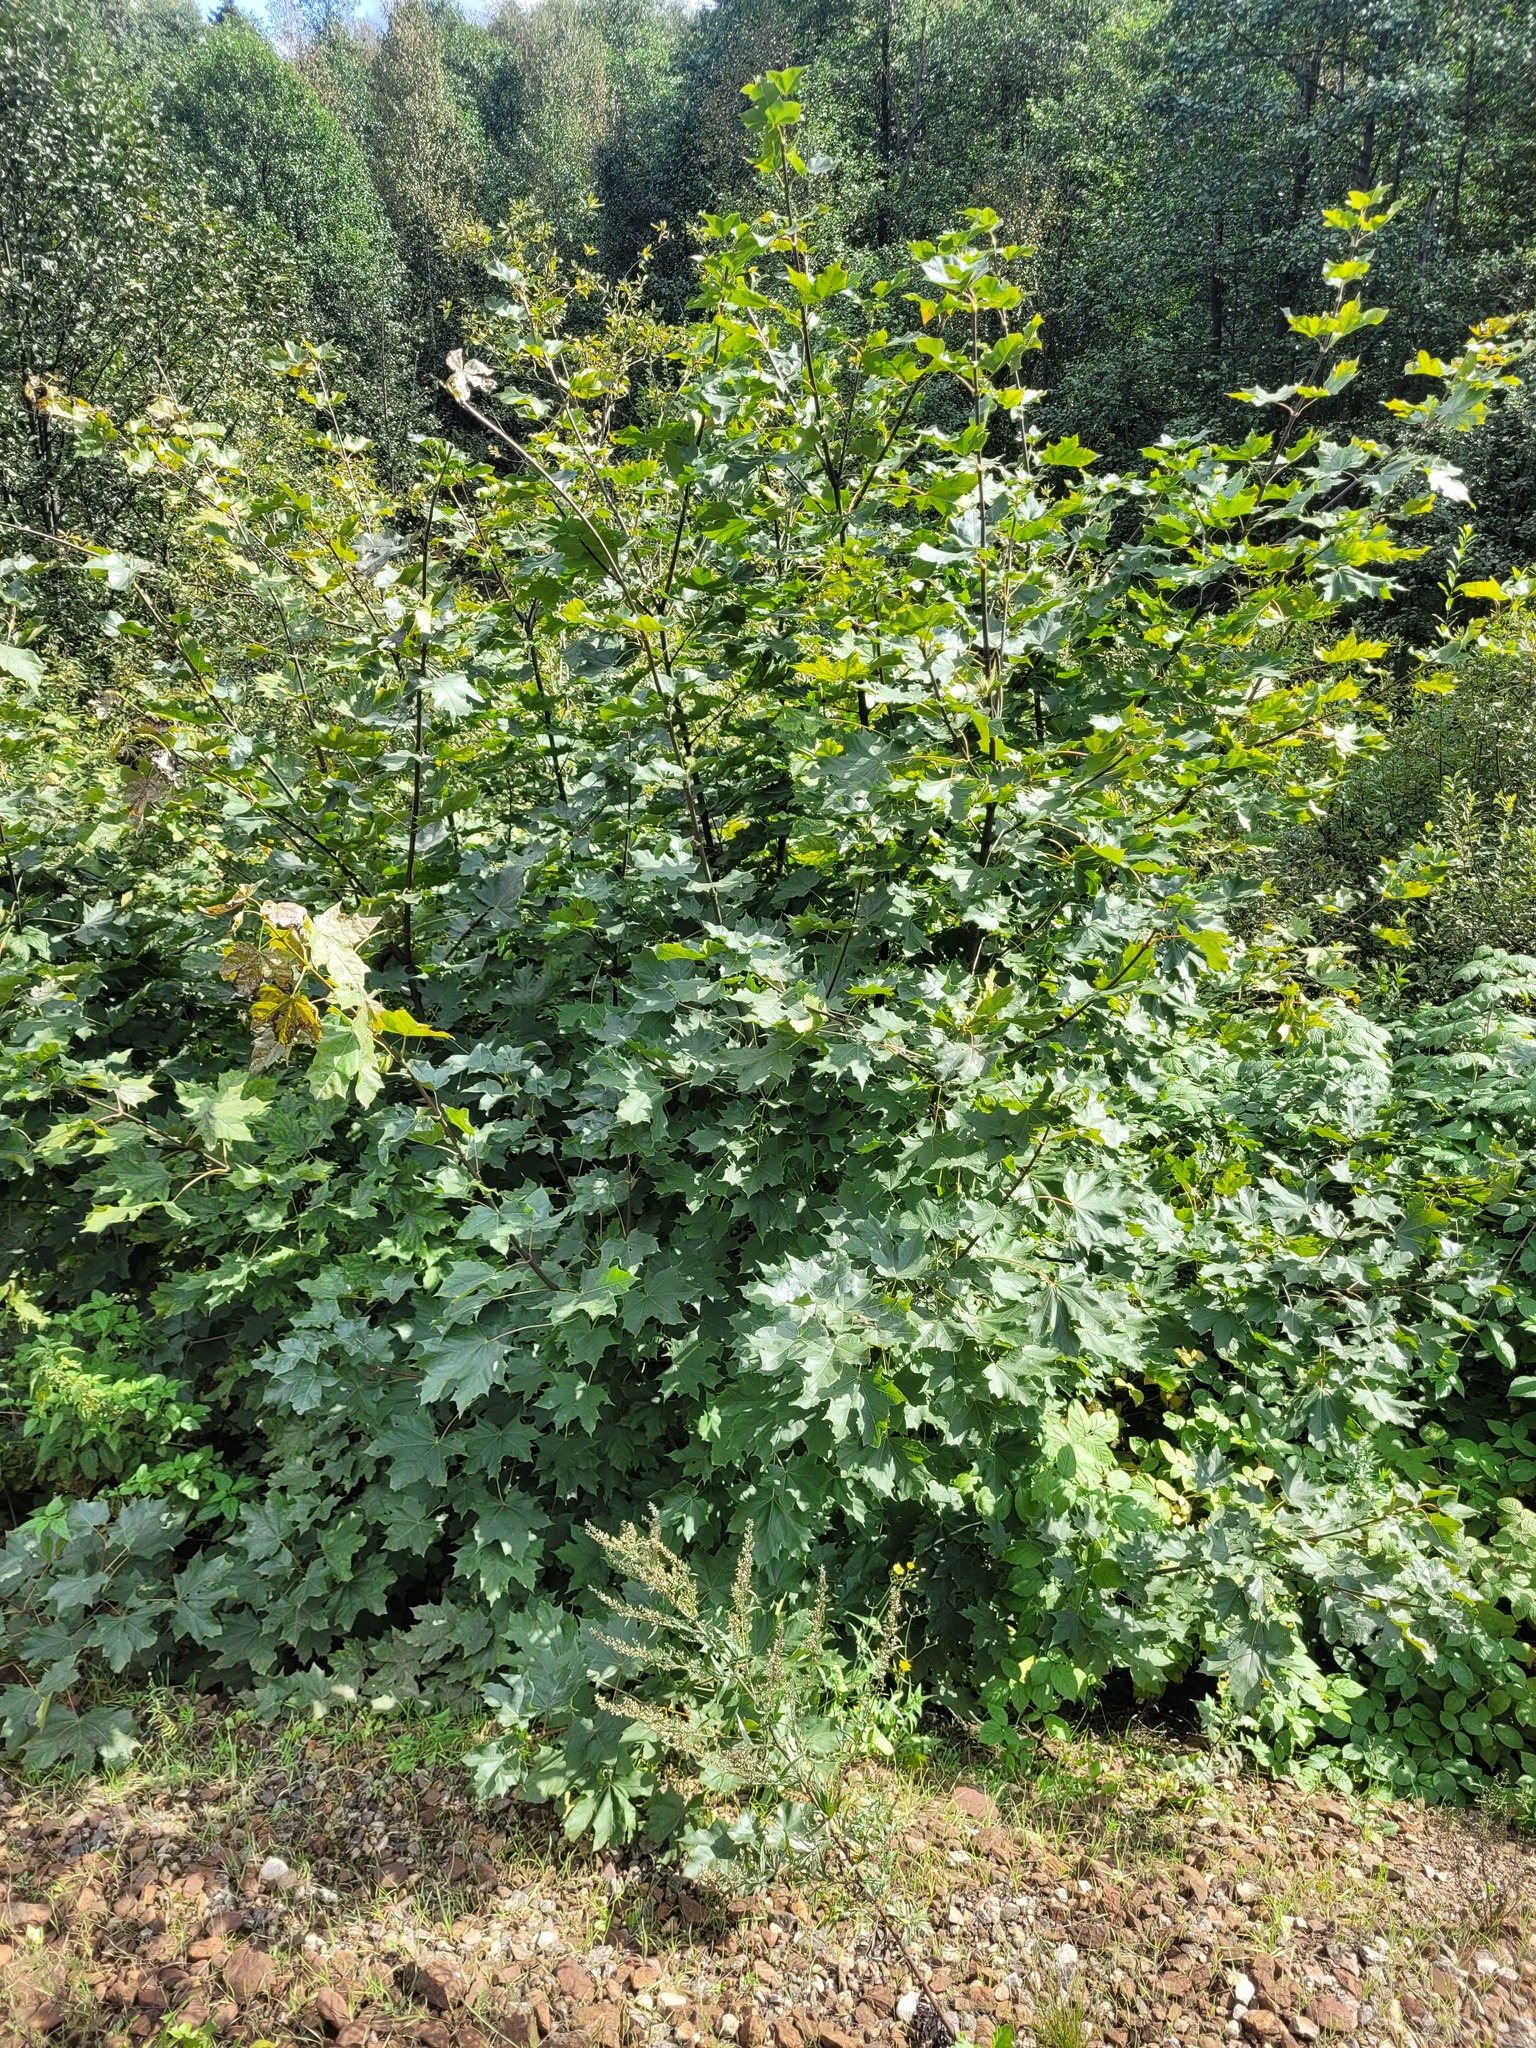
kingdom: Plantae
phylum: Tracheophyta
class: Magnoliopsida
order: Sapindales
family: Sapindaceae
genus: Acer
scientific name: Acer platanoides
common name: Norway maple
